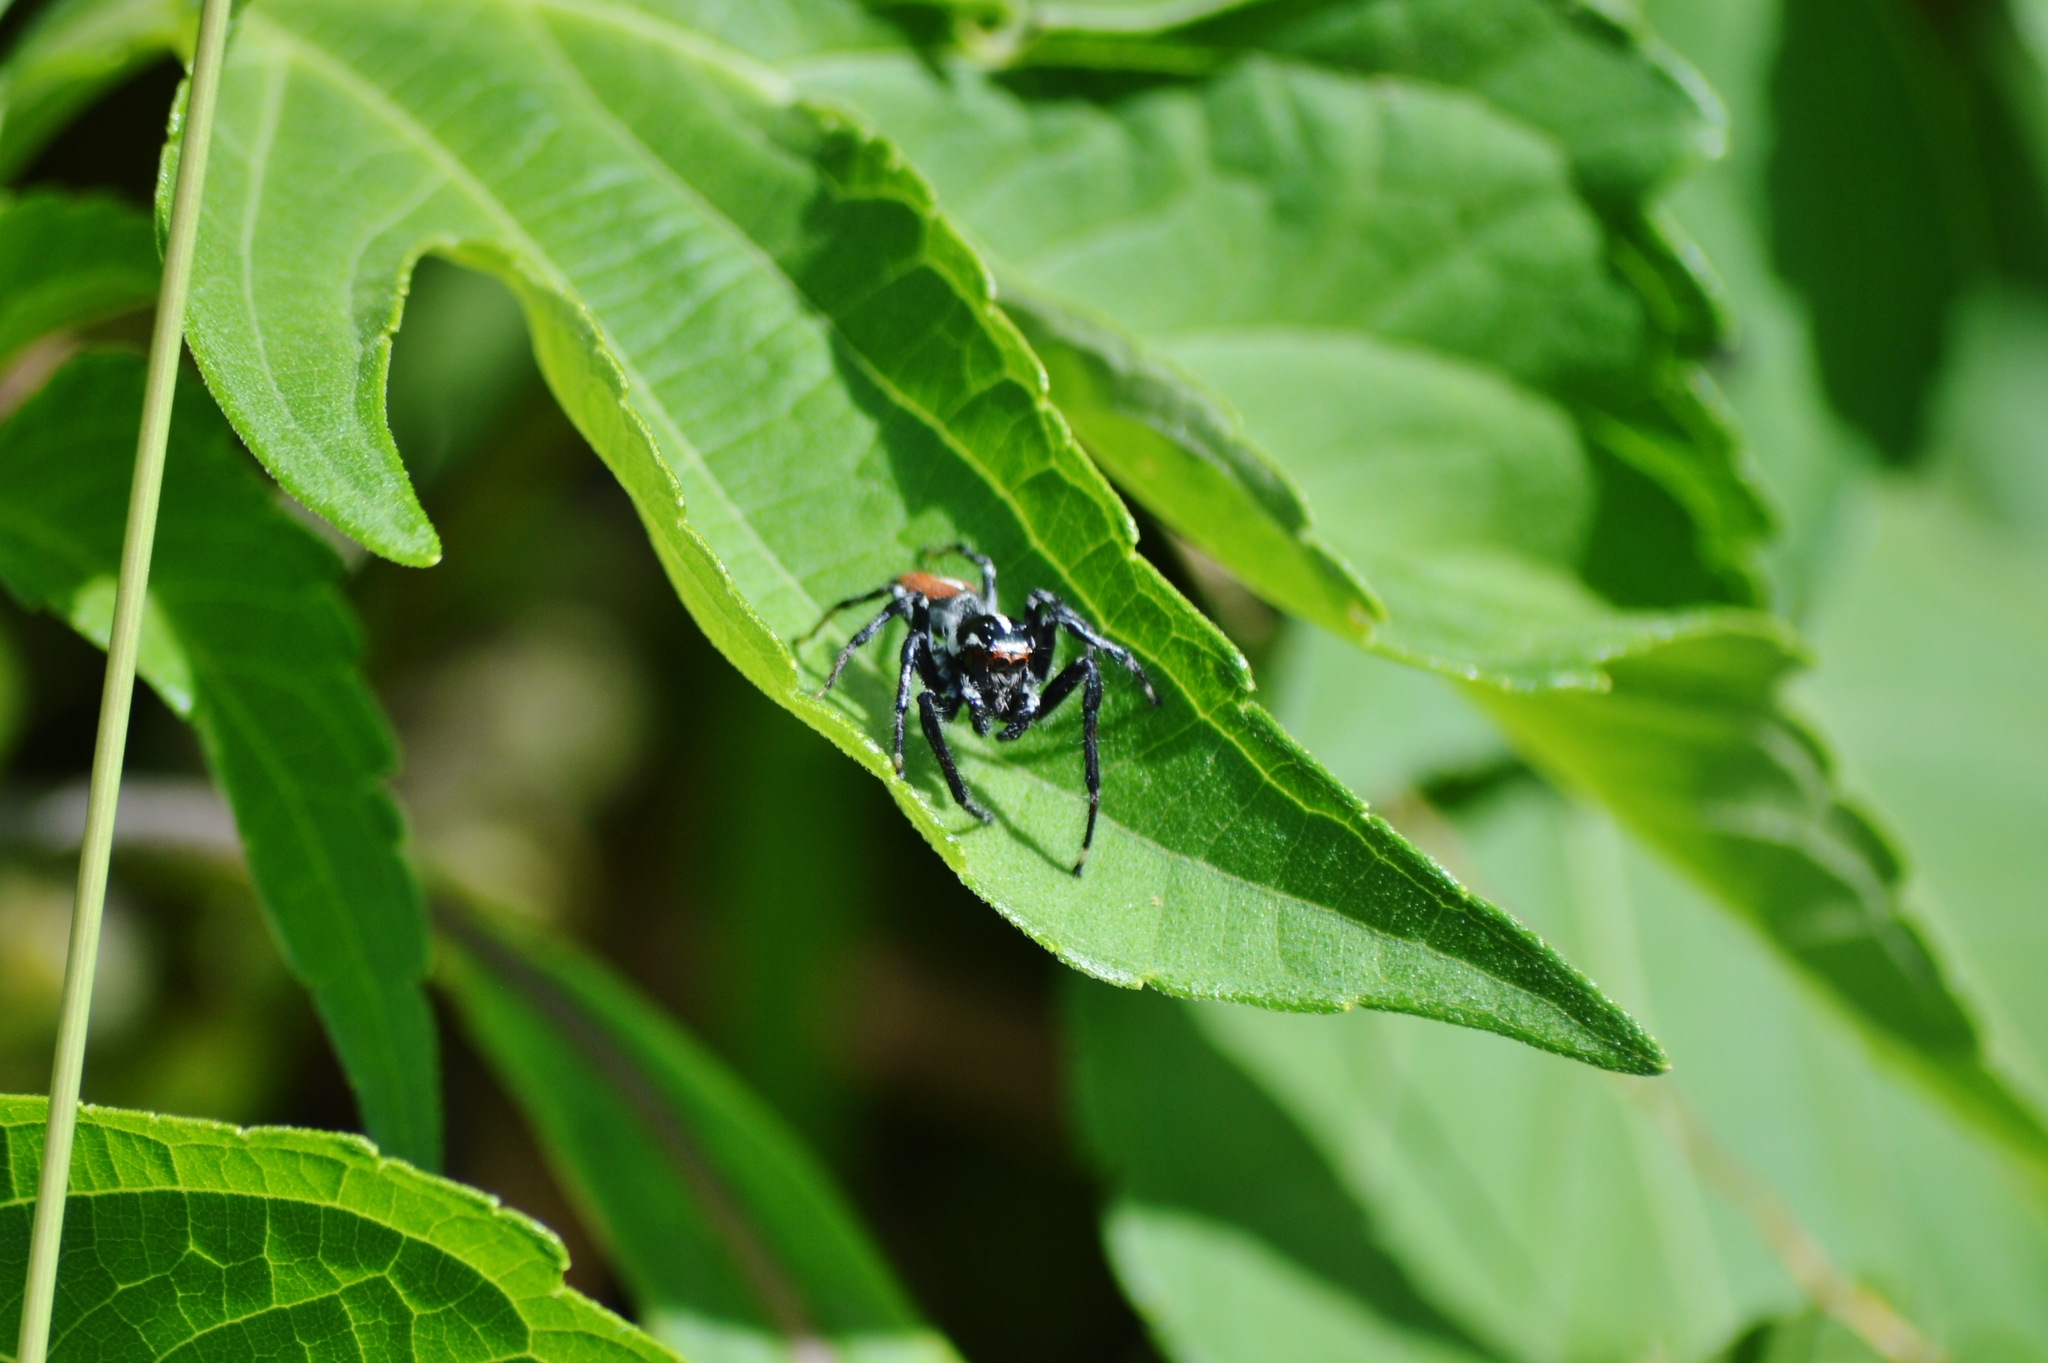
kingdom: Animalia
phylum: Arthropoda
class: Arachnida
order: Araneae
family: Salticidae
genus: Frigga
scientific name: Frigga quintensis
